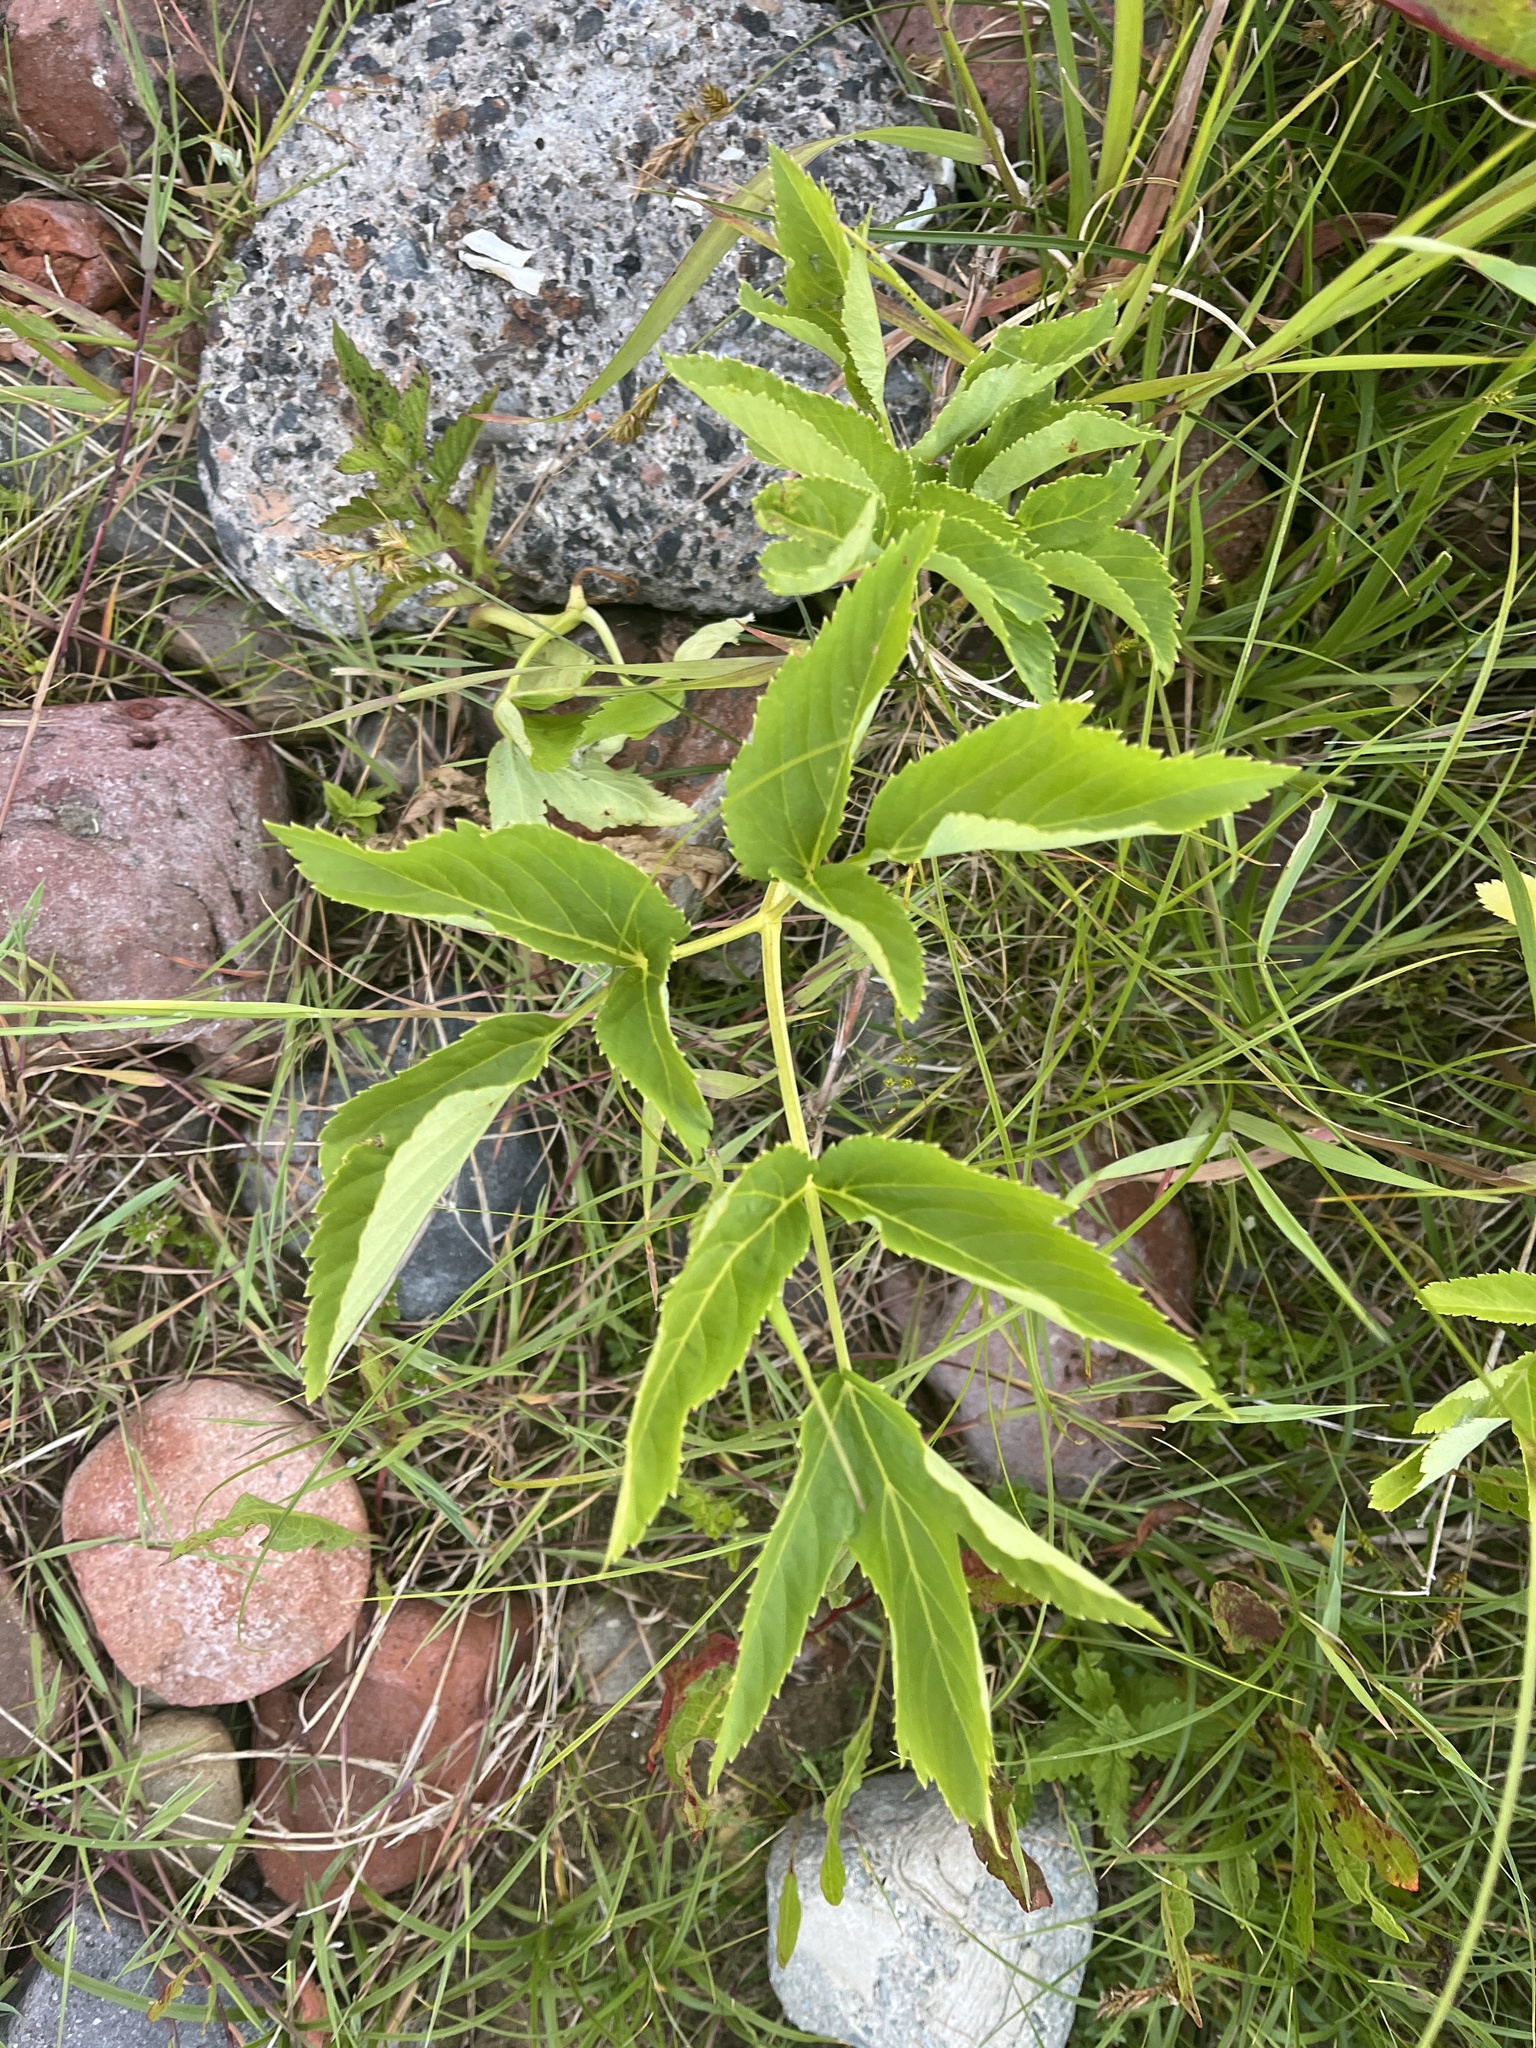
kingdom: Plantae
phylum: Tracheophyta
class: Magnoliopsida
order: Apiales
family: Apiaceae
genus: Angelica
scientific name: Angelica sylvestris
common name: Wild angelica
